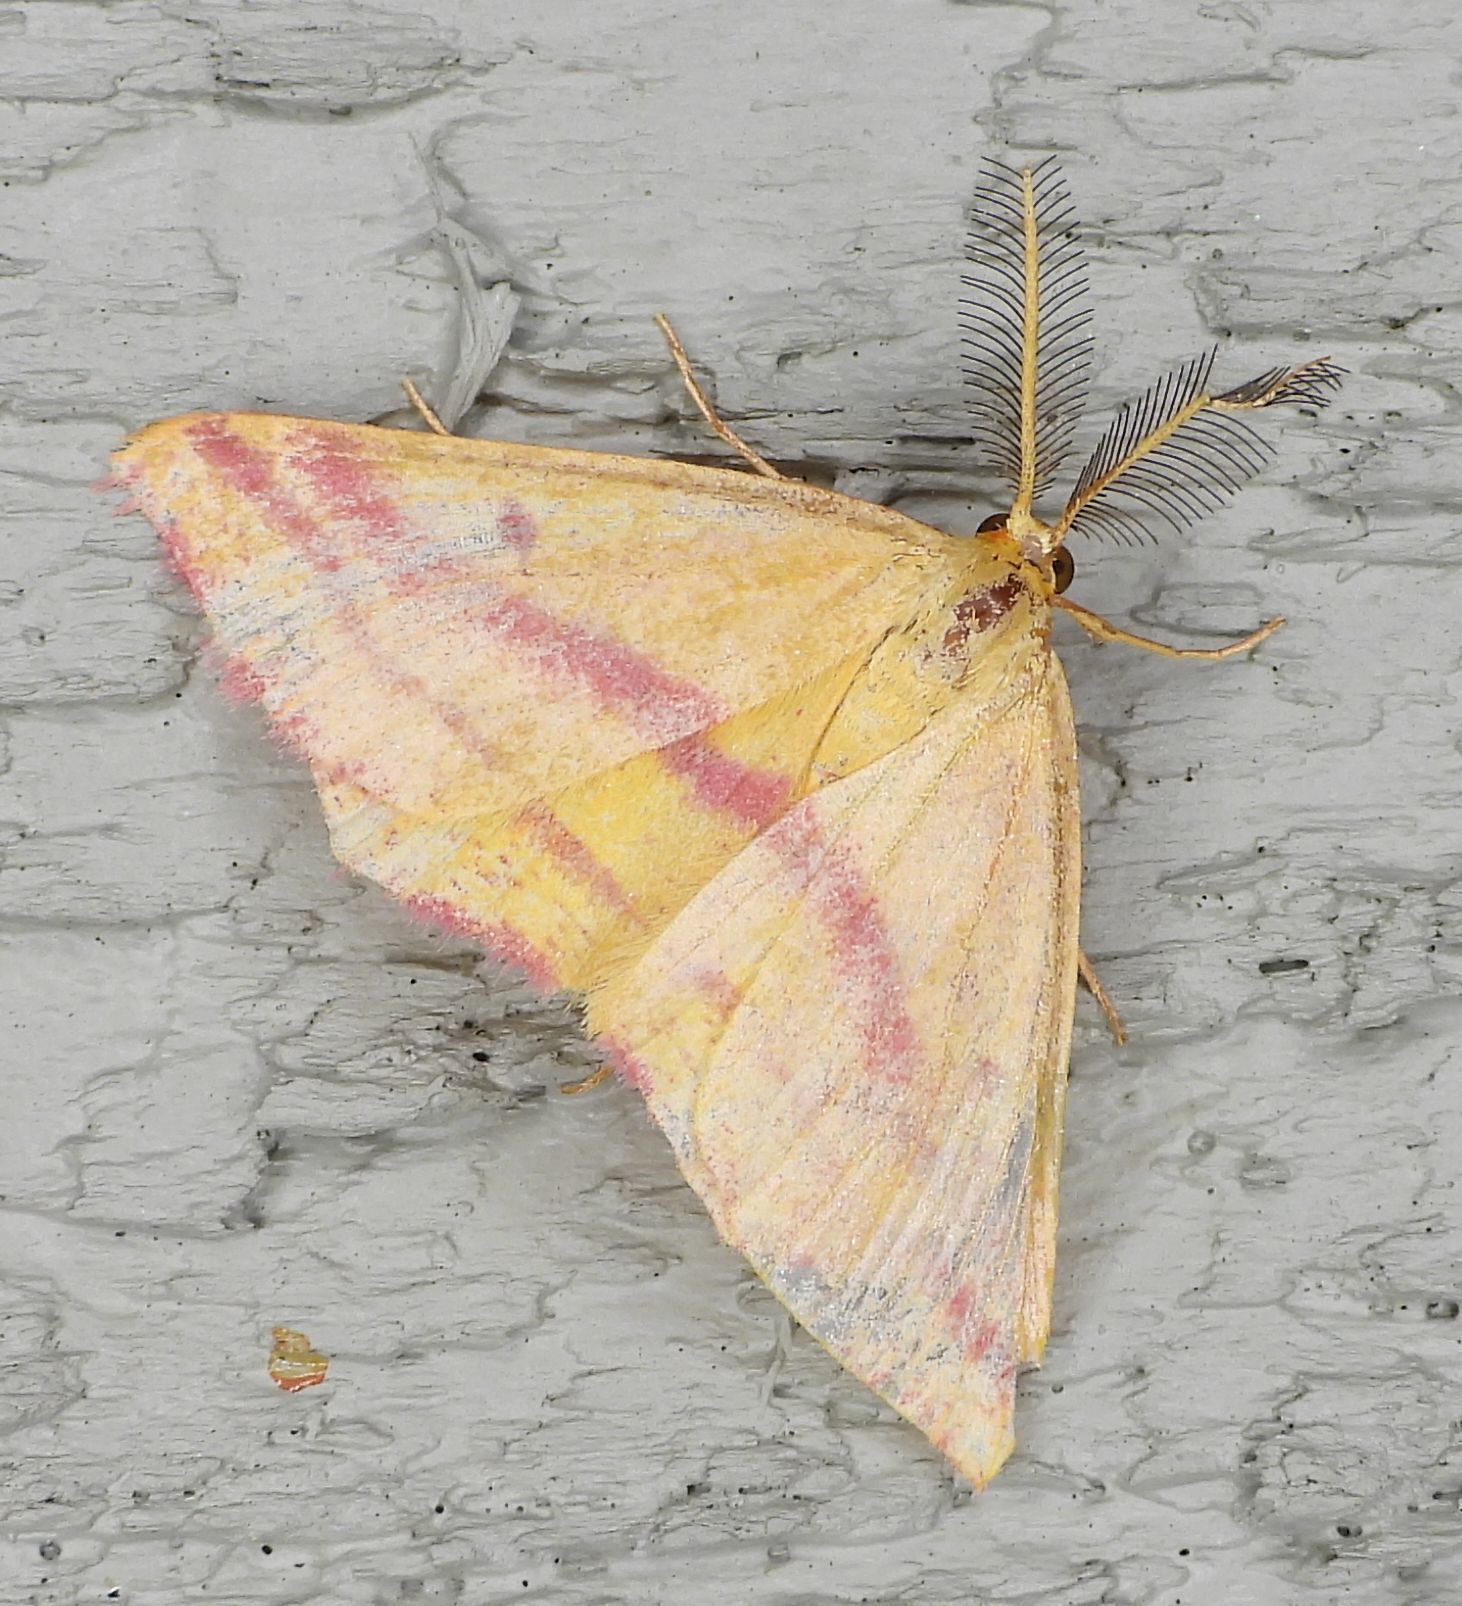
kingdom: Animalia
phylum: Arthropoda
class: Insecta
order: Lepidoptera
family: Geometridae
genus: Haematopis
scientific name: Haematopis grataria
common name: Chickweed geometer
